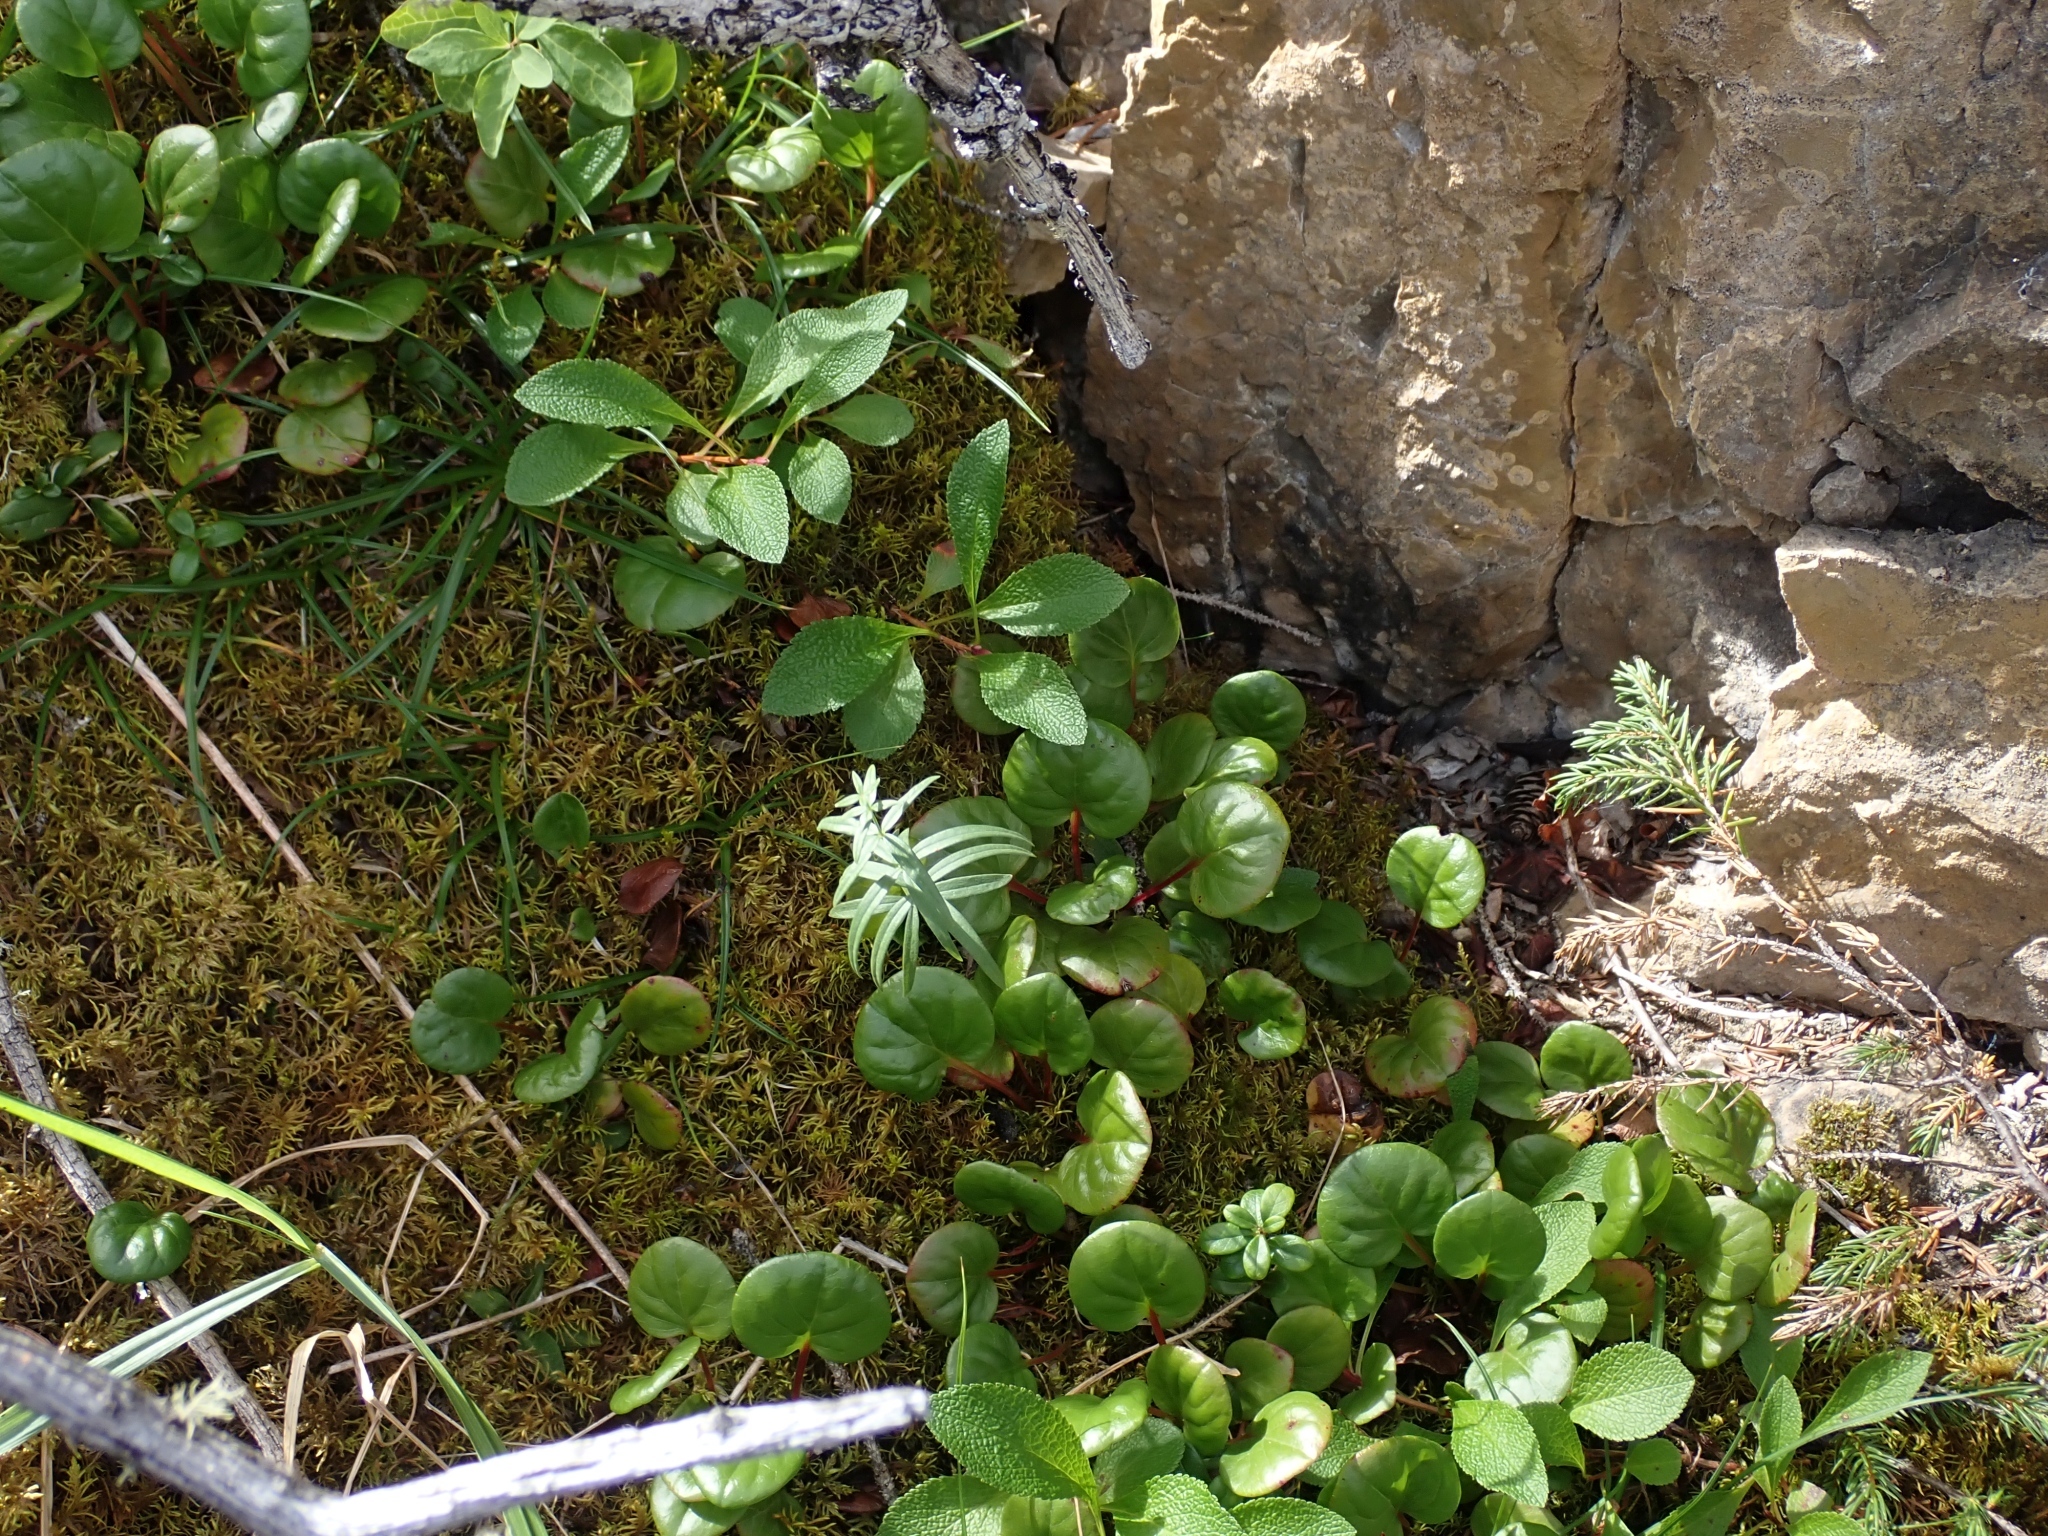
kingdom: Plantae
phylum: Tracheophyta
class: Magnoliopsida
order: Gentianales
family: Rubiaceae
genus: Galium
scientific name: Galium boreale
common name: Northern bedstraw
